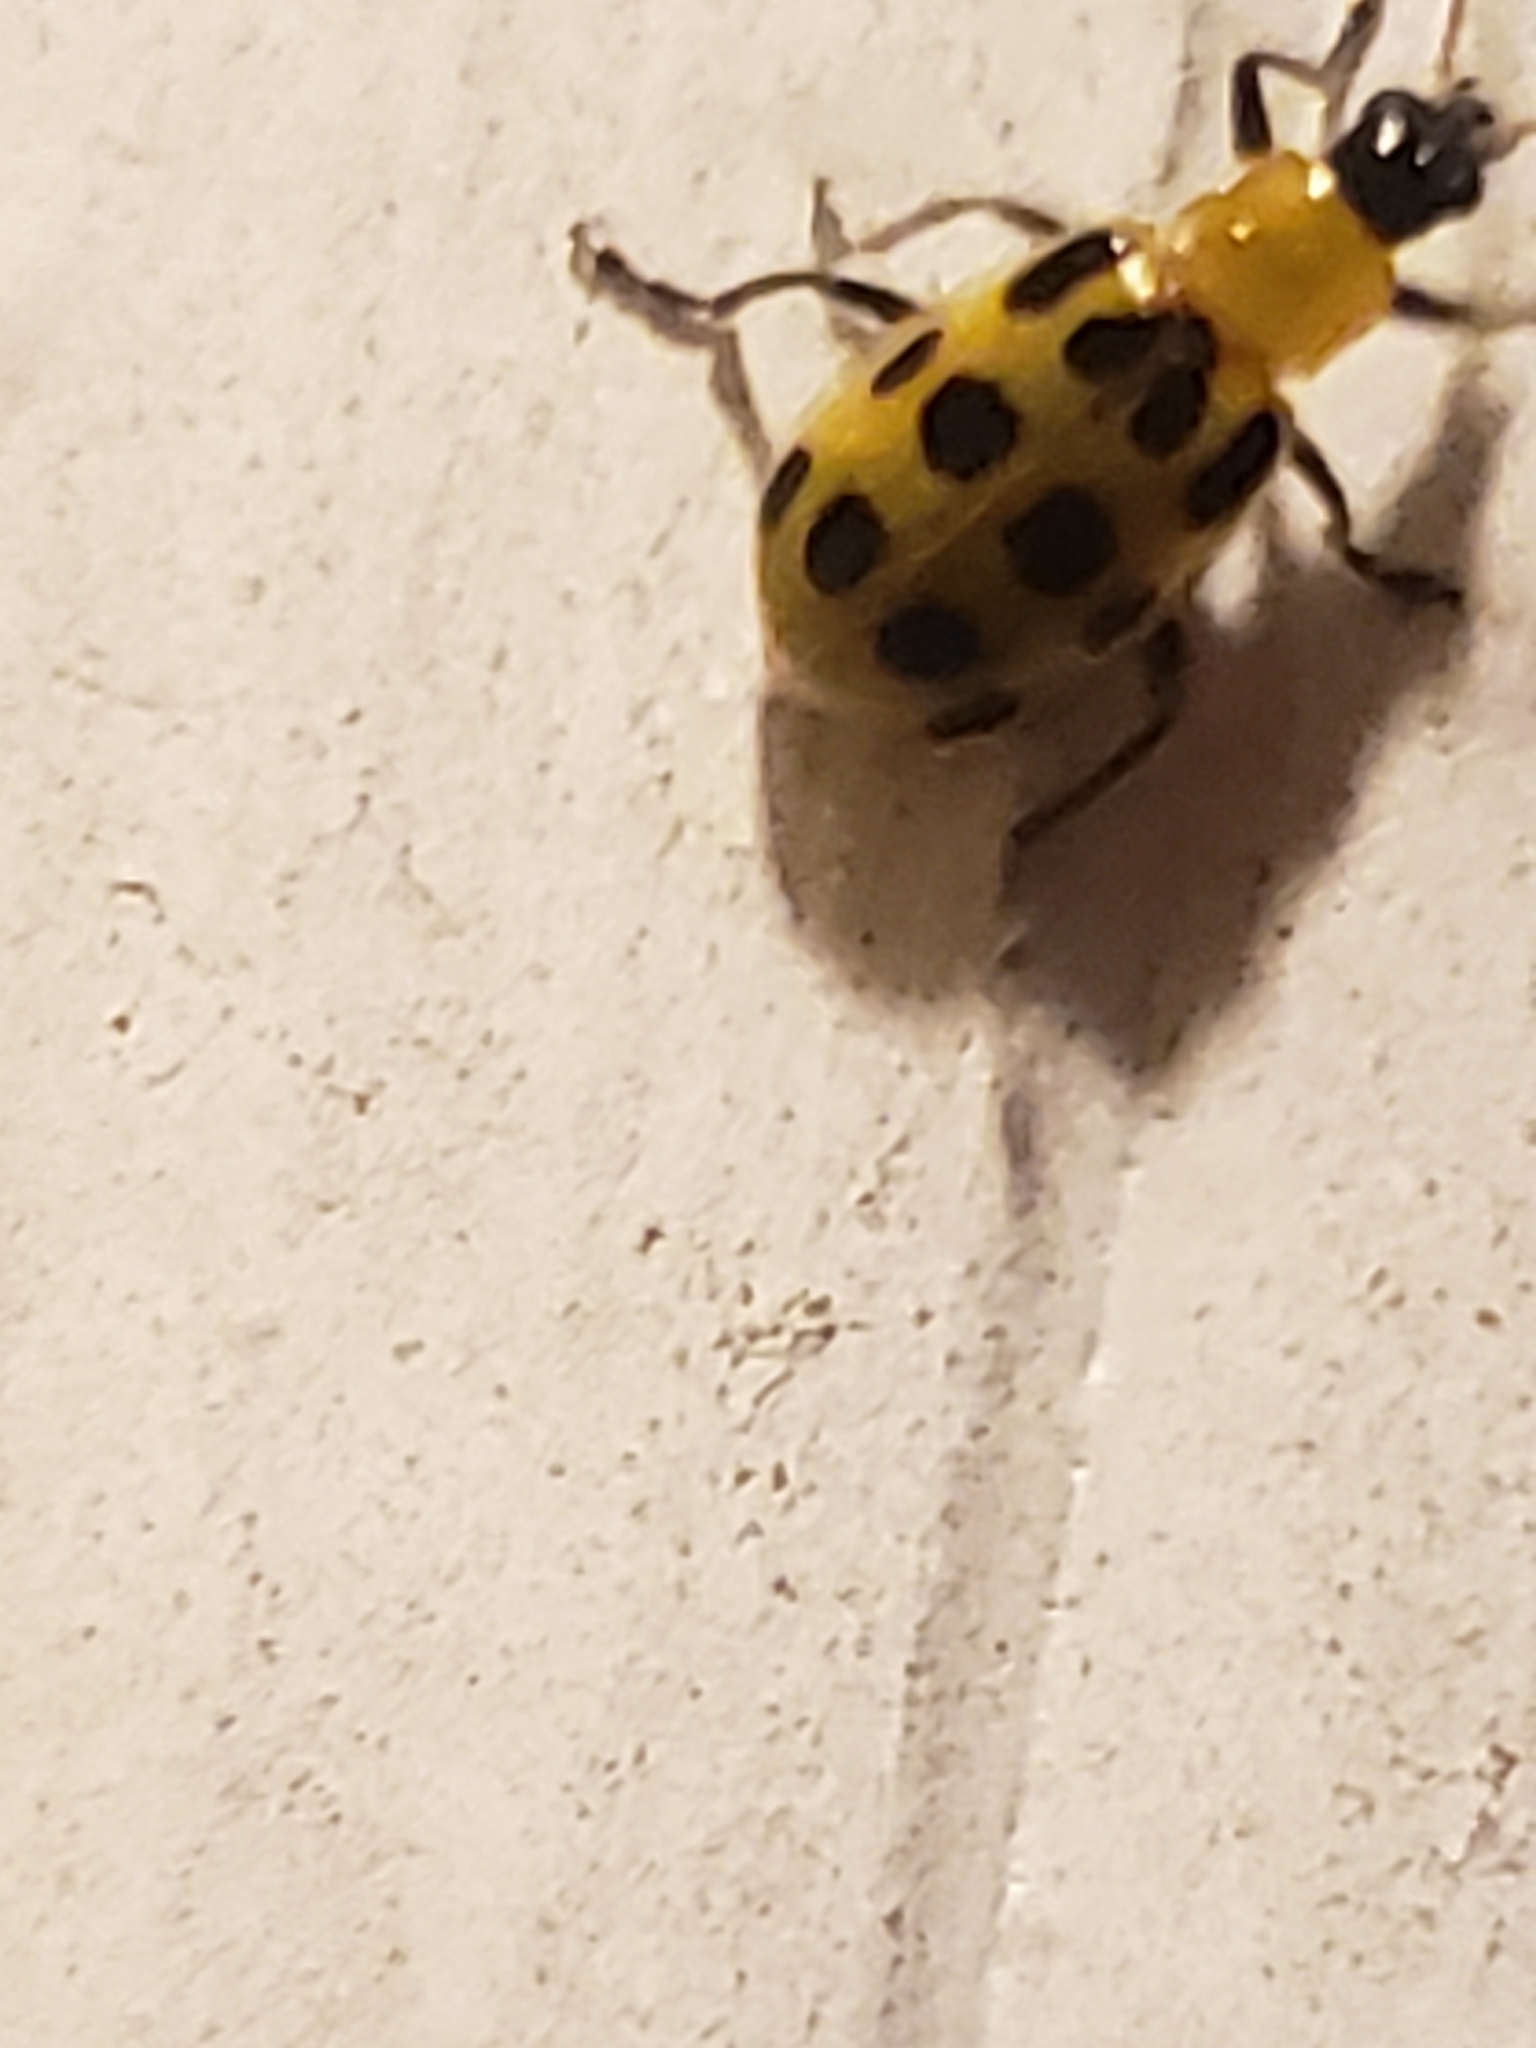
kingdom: Animalia
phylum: Arthropoda
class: Insecta
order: Coleoptera
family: Chrysomelidae
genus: Diabrotica
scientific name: Diabrotica undecimpunctata
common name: Spotted cucumber beetle
